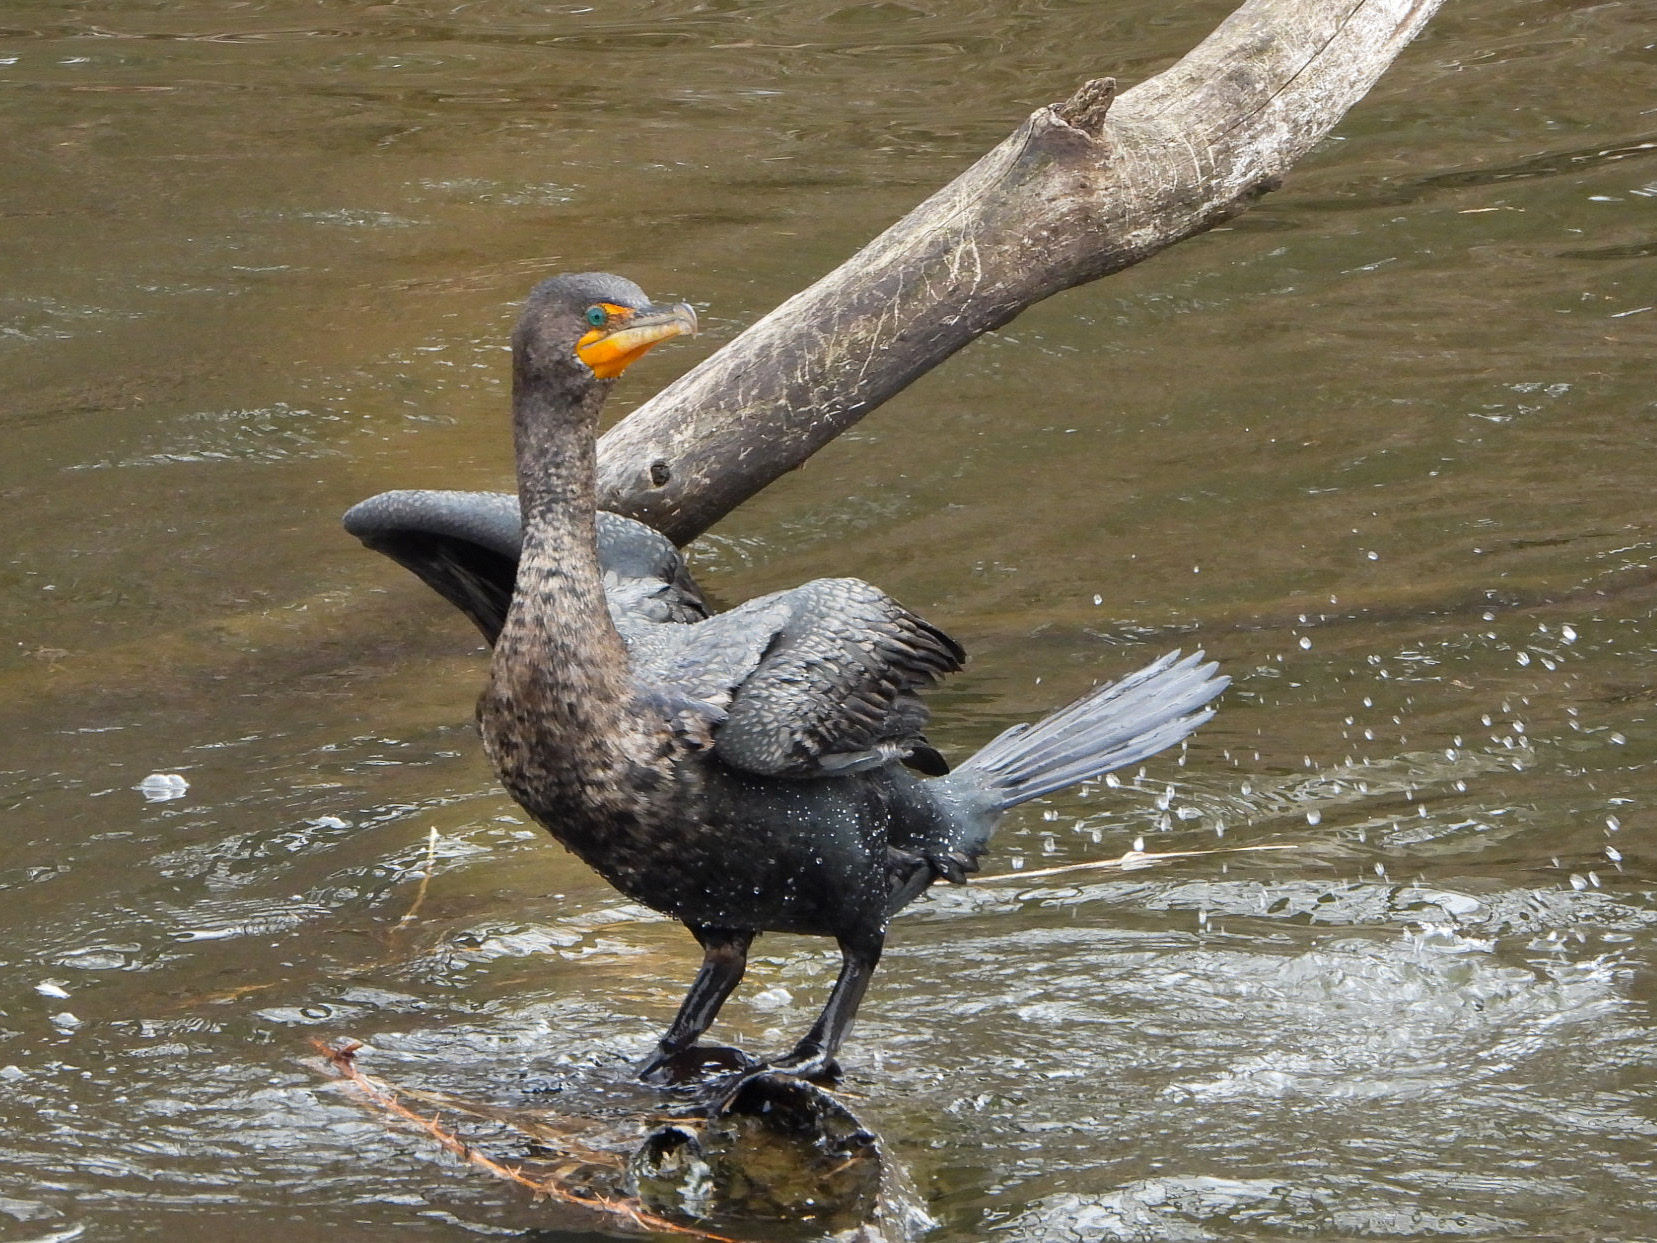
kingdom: Animalia
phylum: Chordata
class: Aves
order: Suliformes
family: Phalacrocoracidae
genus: Phalacrocorax
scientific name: Phalacrocorax auritus
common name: Double-crested cormorant
